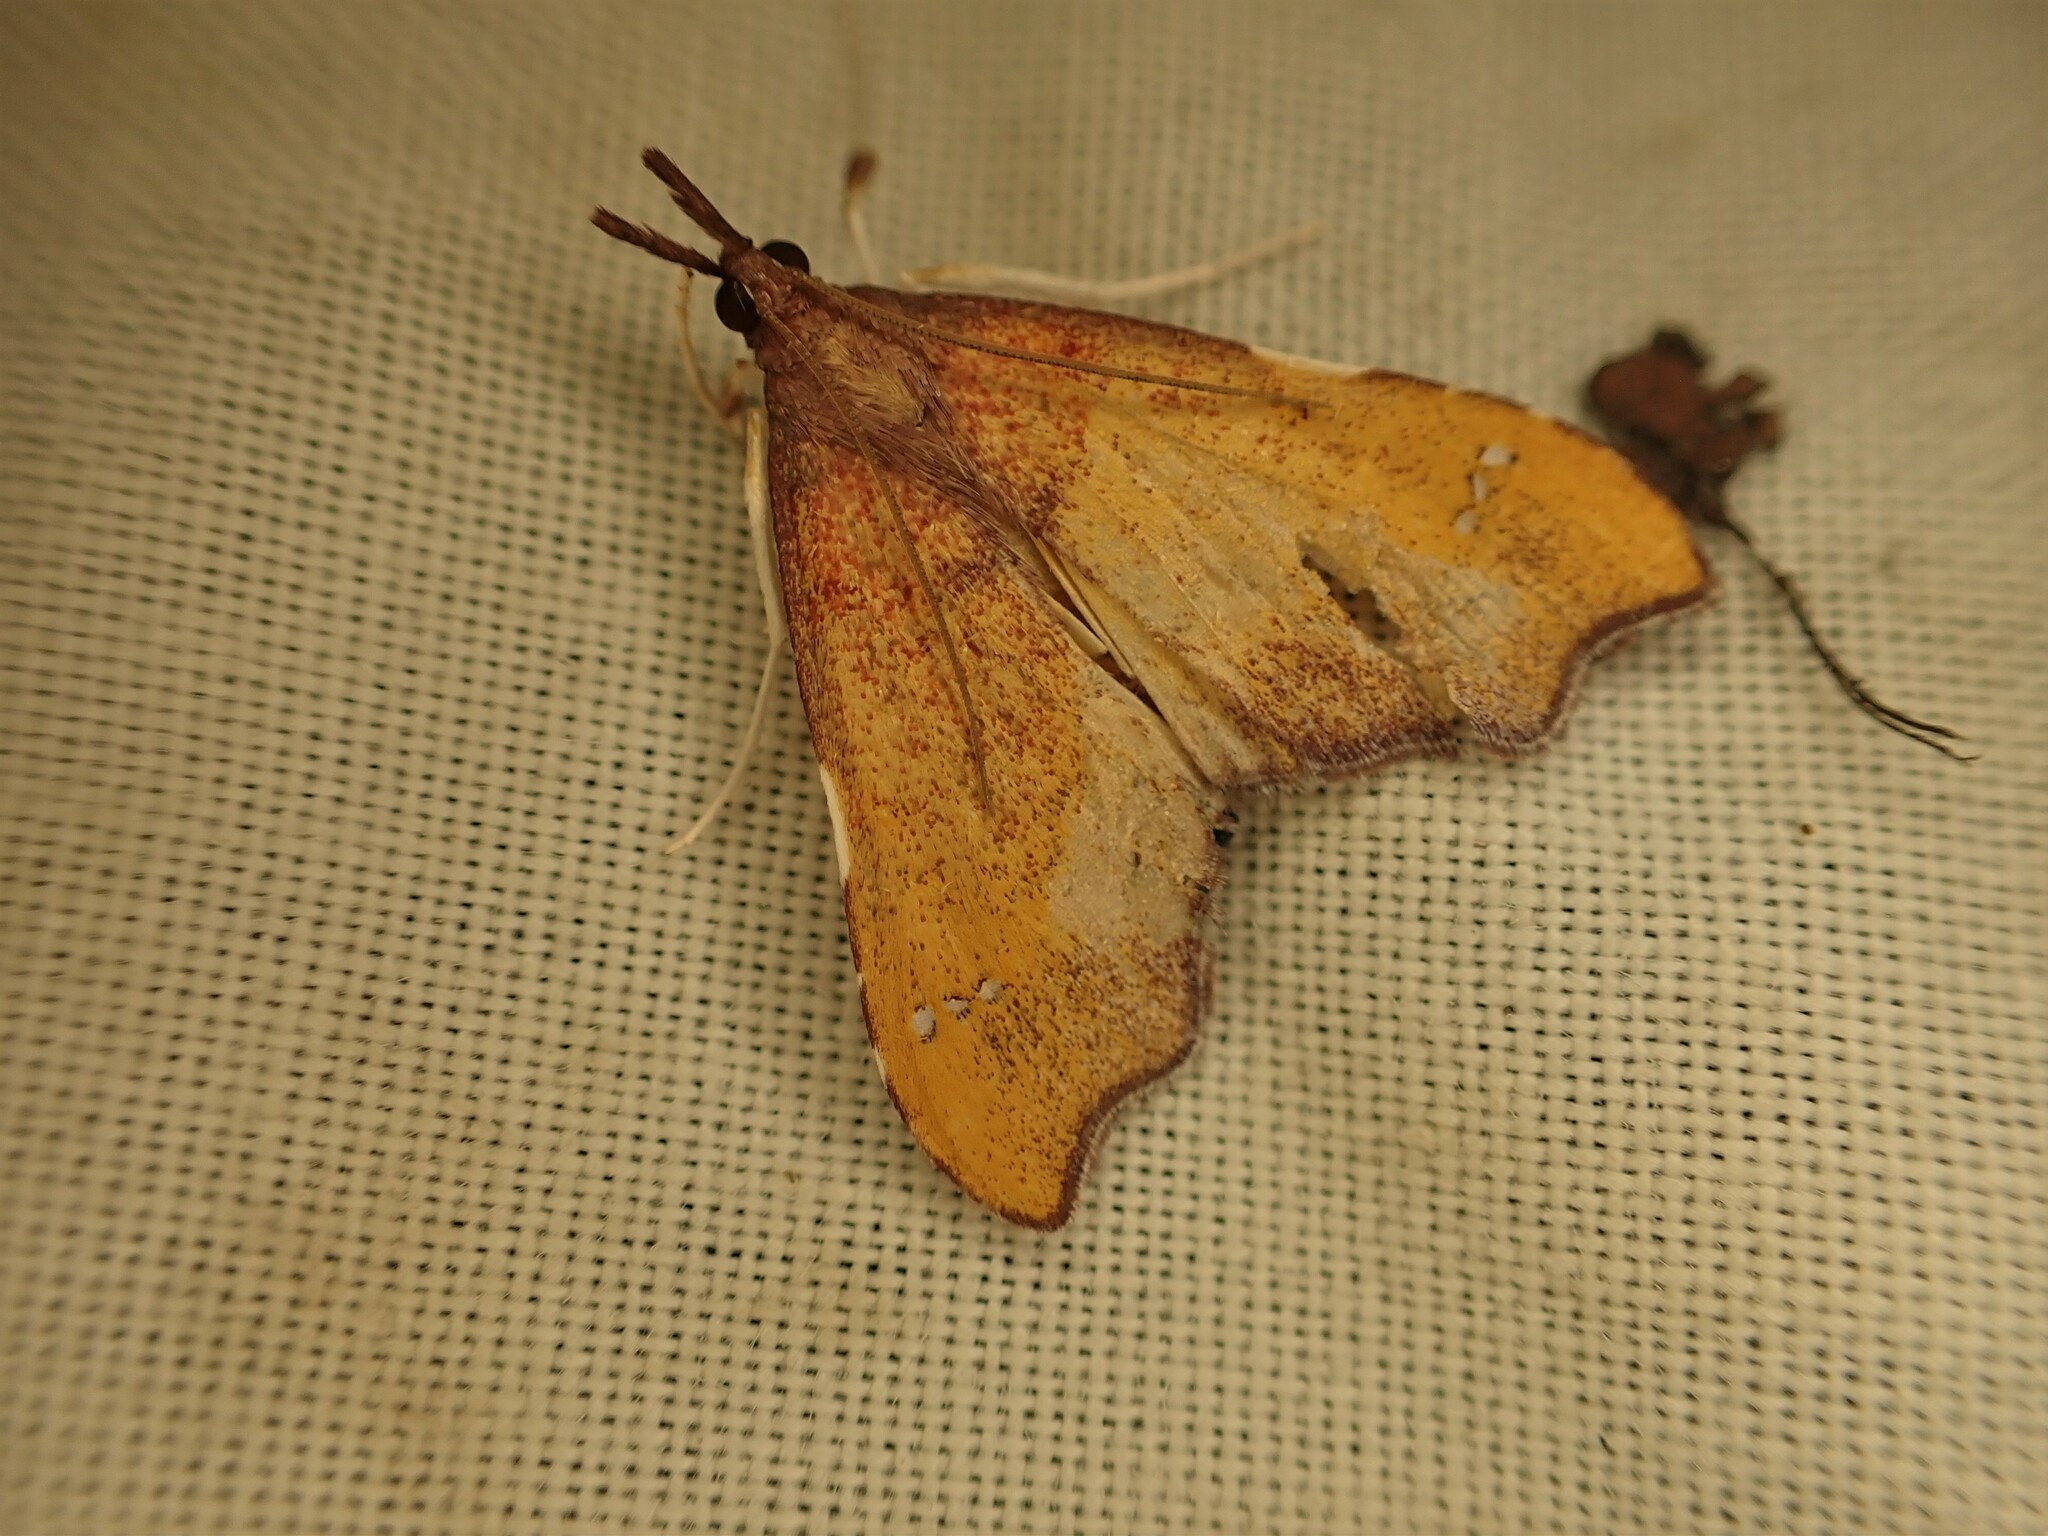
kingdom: Animalia
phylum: Arthropoda
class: Insecta
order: Lepidoptera
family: Crambidae
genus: Deana
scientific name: Deana hybreasalis
